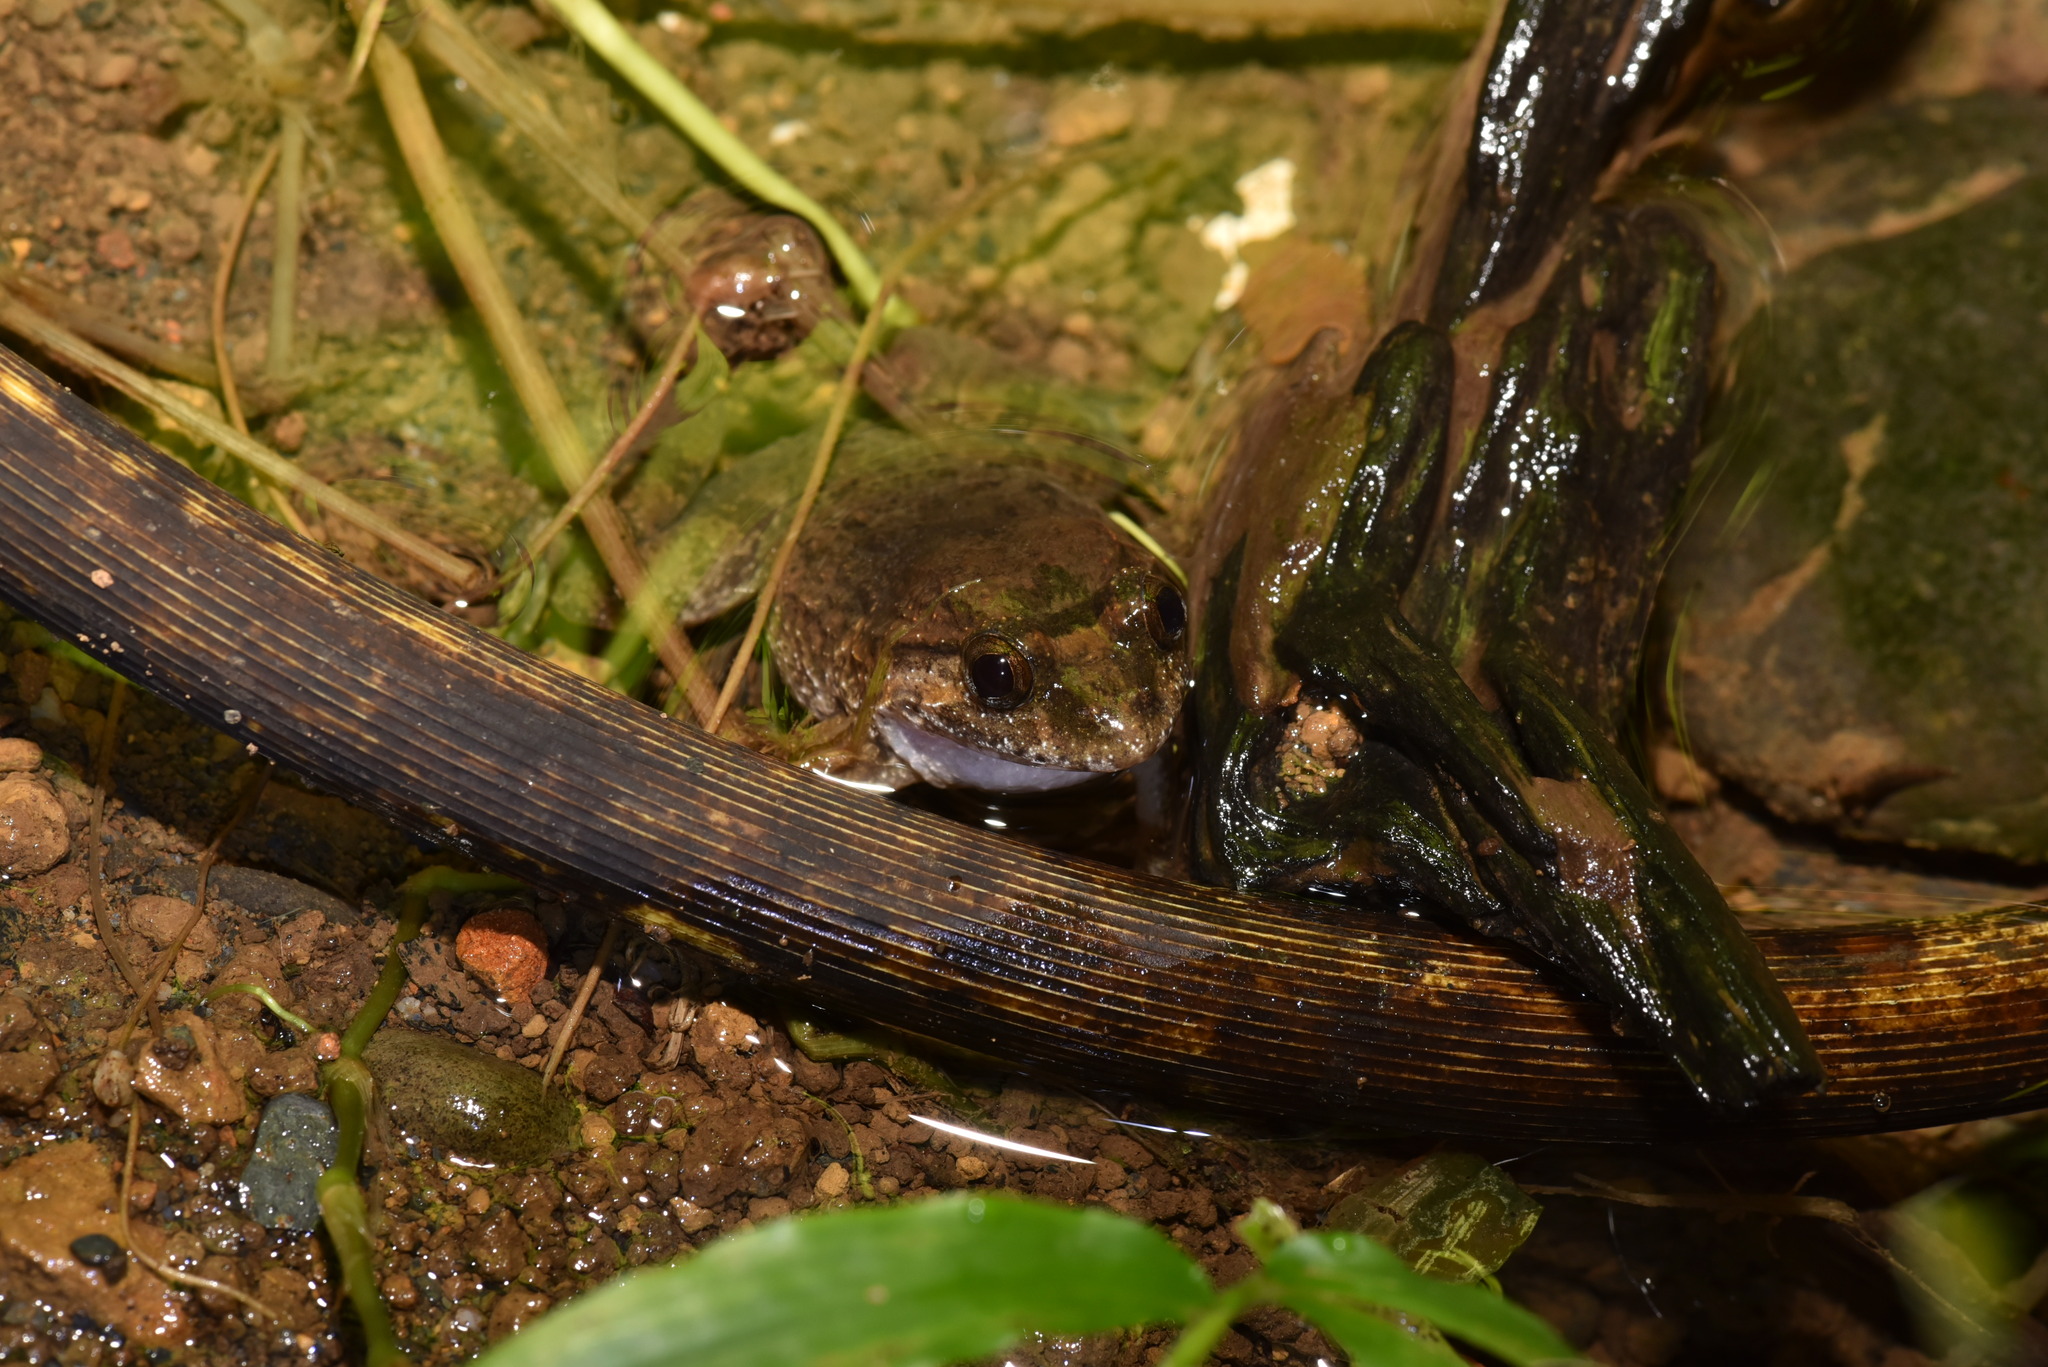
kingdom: Animalia
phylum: Chordata
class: Amphibia
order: Anura
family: Dicroglossidae
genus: Limnonectes
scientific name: Limnonectes fujianensis
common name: Fujian large-headed frog
